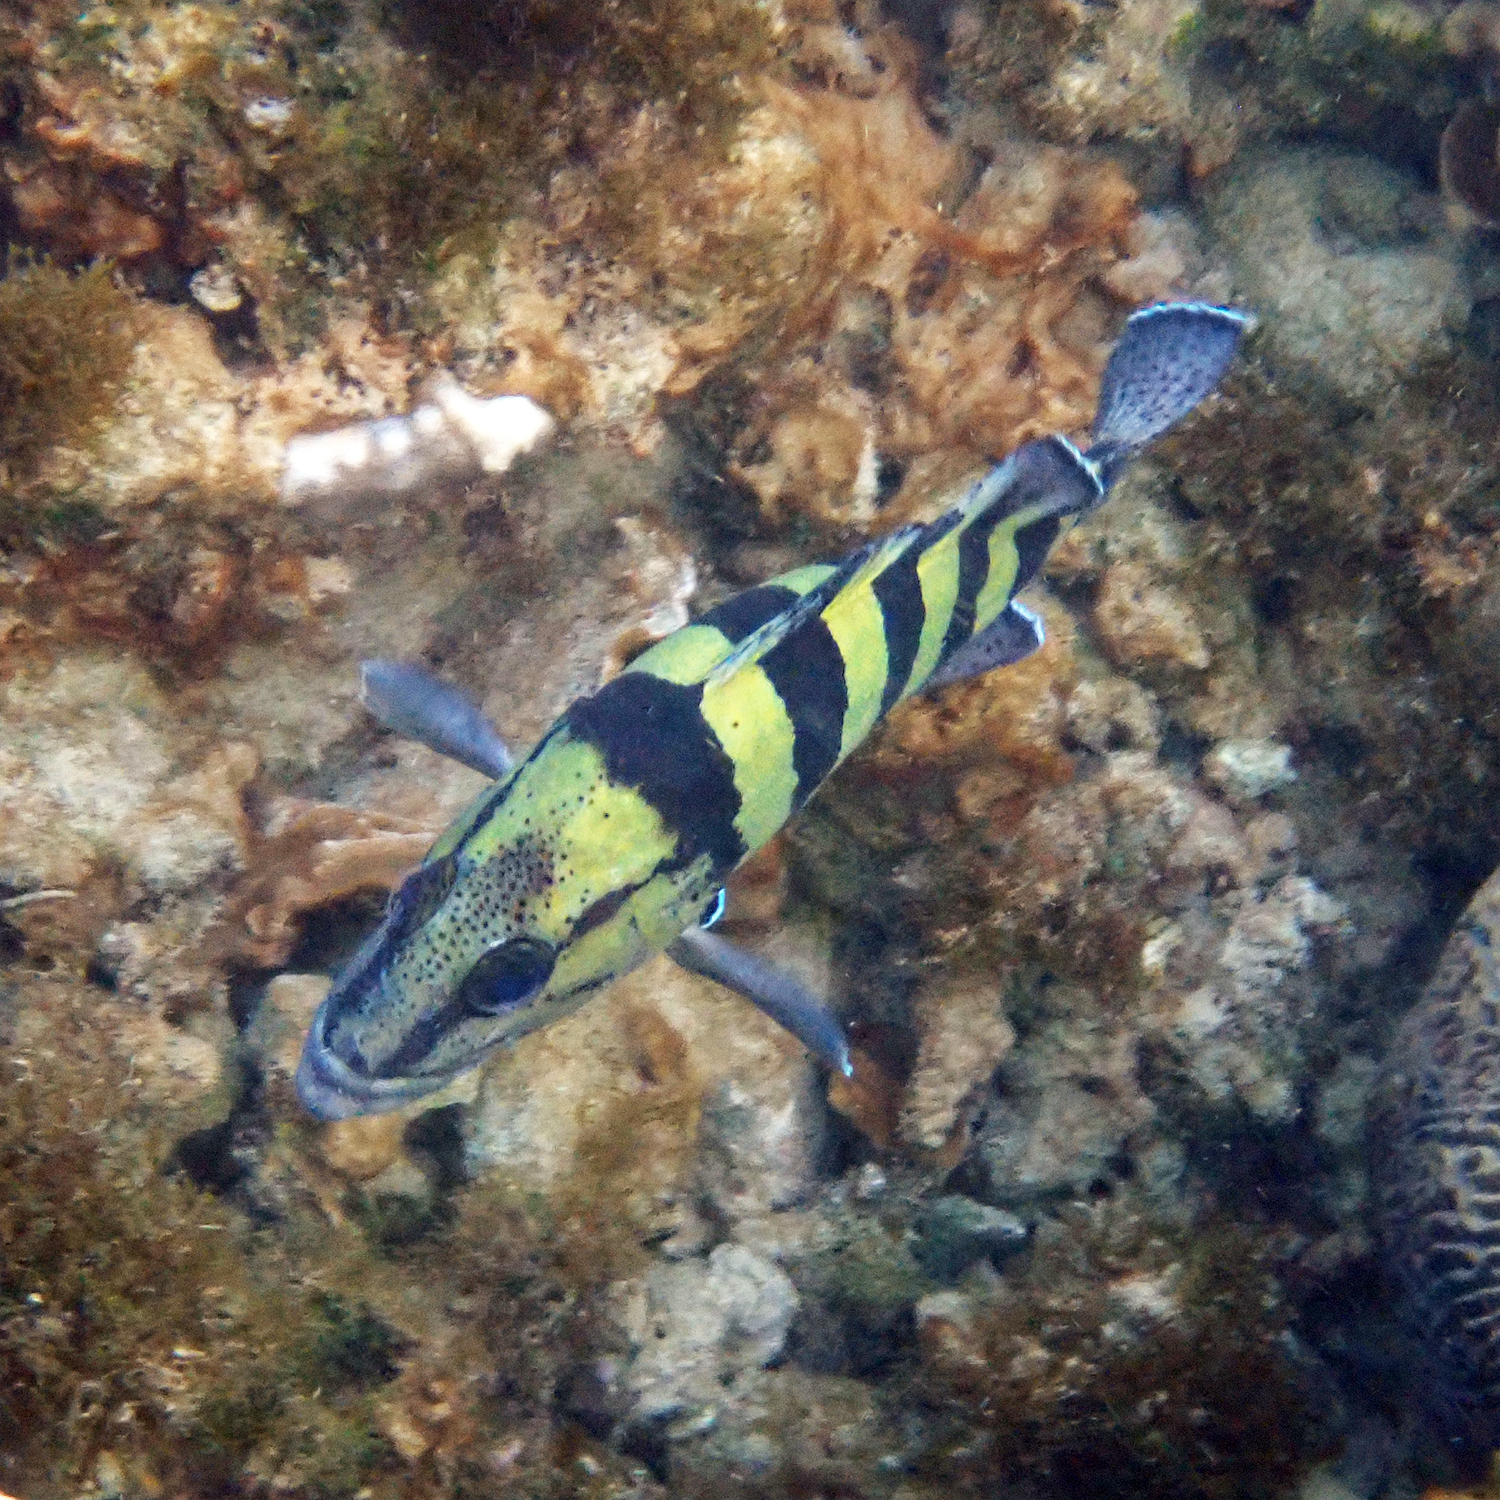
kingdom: Animalia
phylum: Chordata
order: Perciformes
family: Serranidae
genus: Acanthistius
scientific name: Acanthistius cinctus
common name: Girdled rock cod
